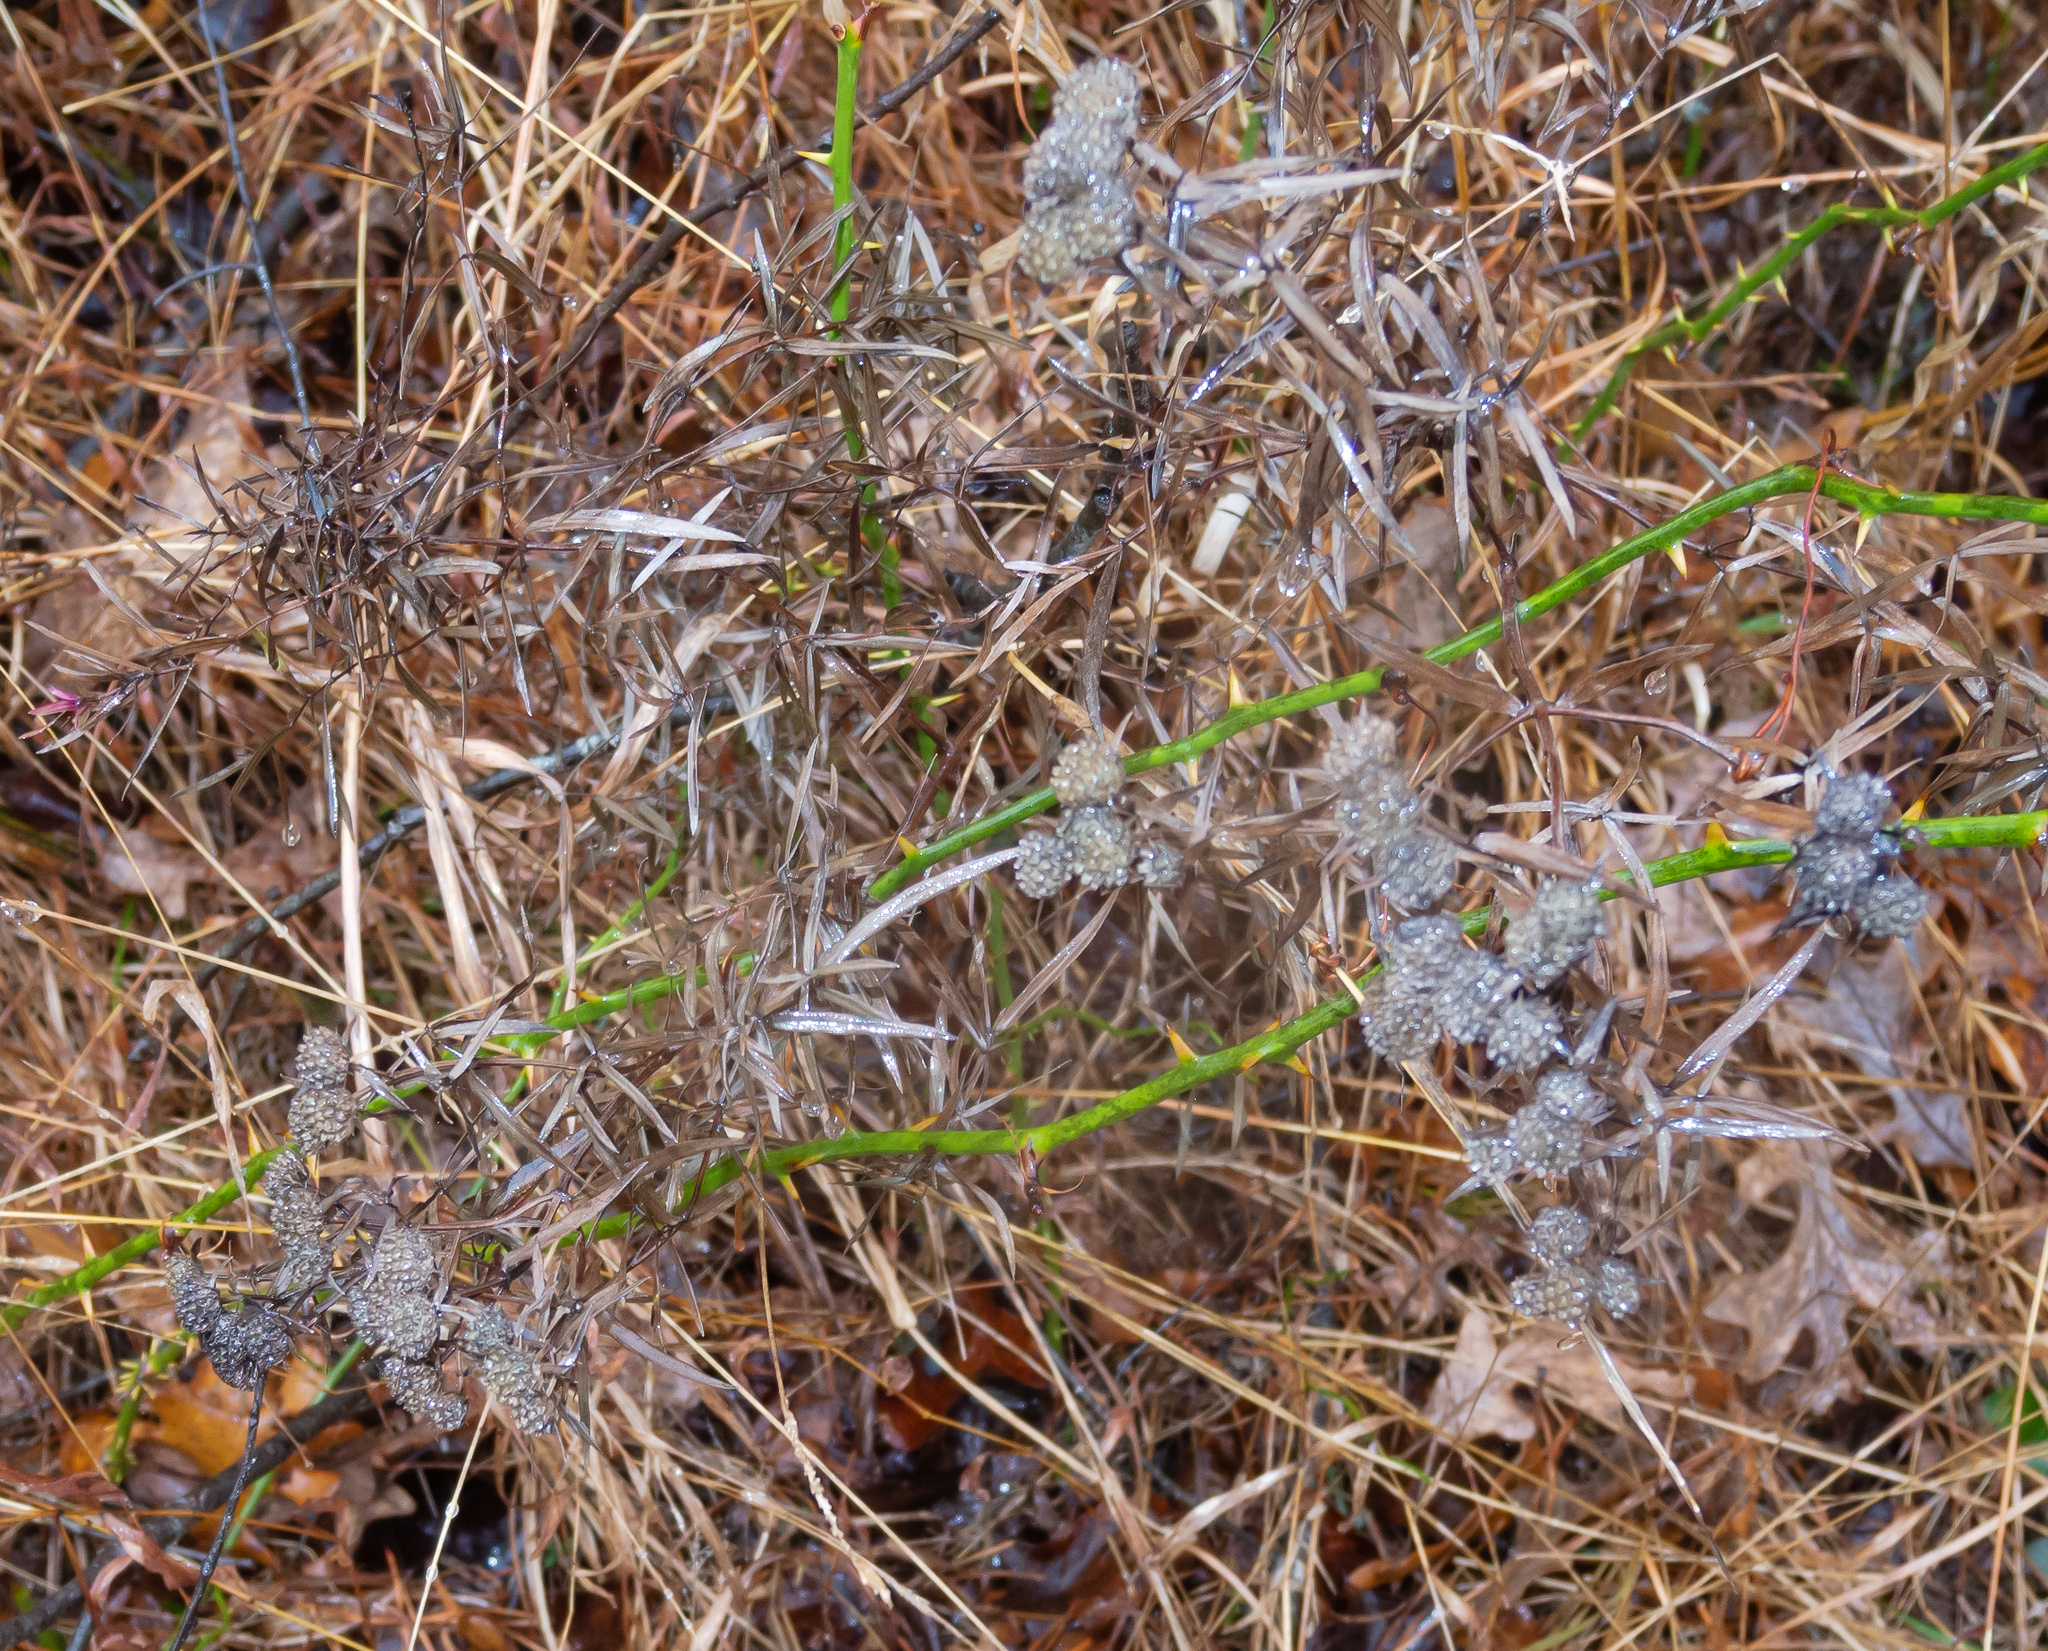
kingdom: Plantae
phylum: Tracheophyta
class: Magnoliopsida
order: Lamiales
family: Lamiaceae
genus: Pycnanthemum
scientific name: Pycnanthemum tenuifolium
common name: Narrow-leaf mountain-mint
